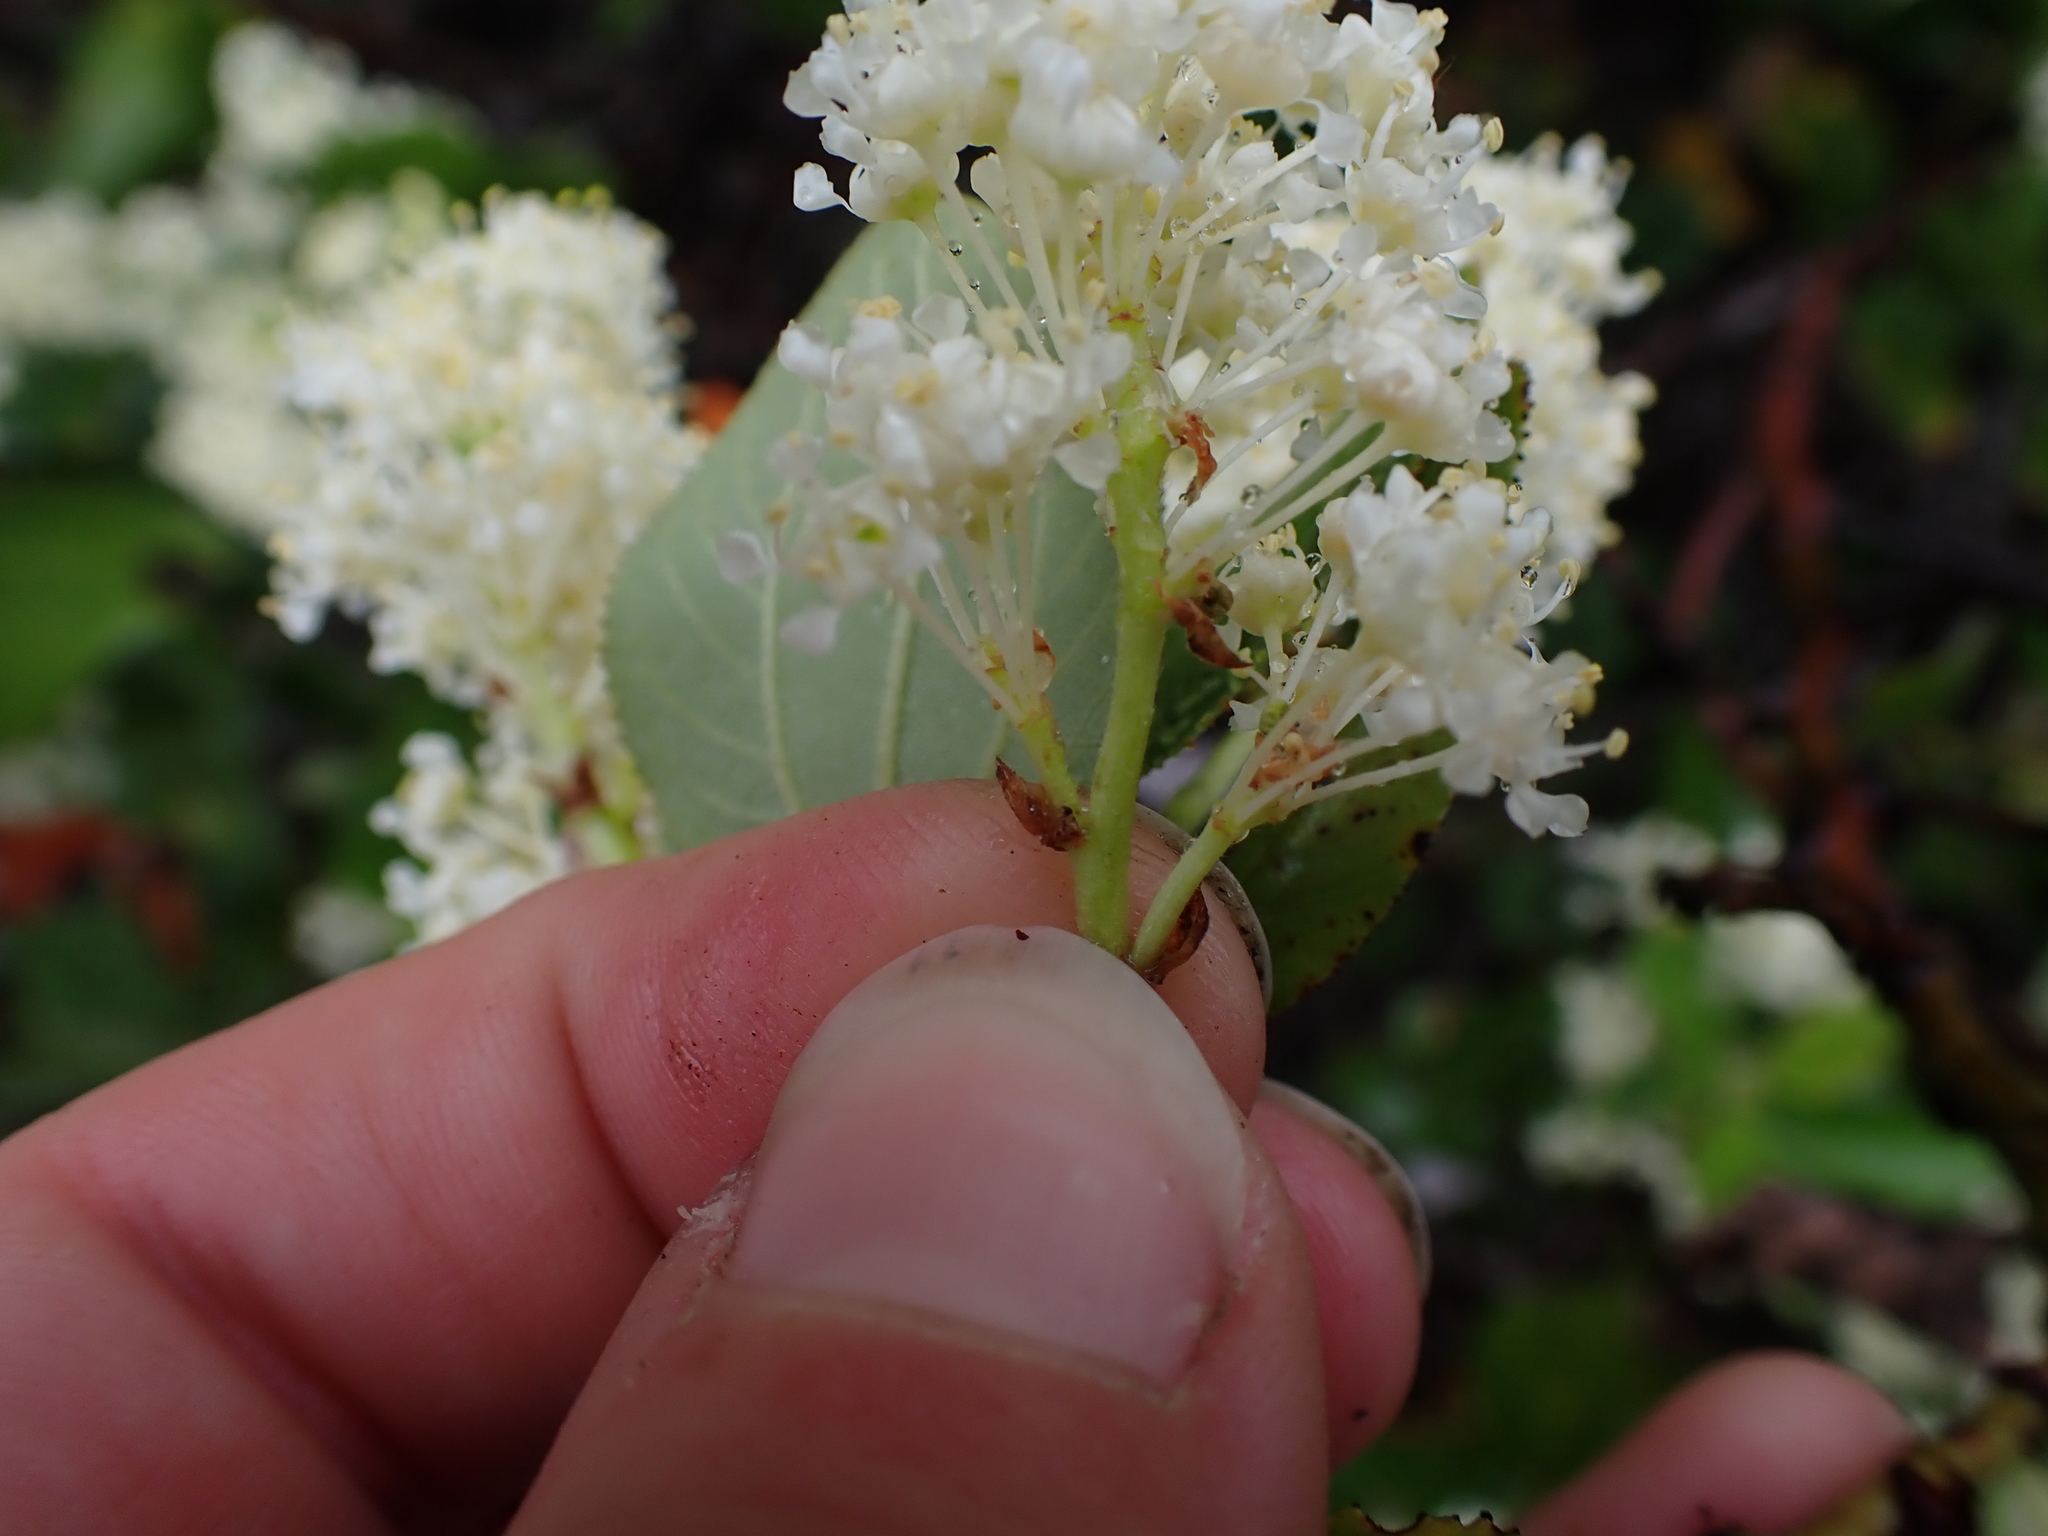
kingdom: Plantae
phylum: Tracheophyta
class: Magnoliopsida
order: Rosales
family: Rhamnaceae
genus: Ceanothus
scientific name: Ceanothus velutinus
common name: Snowbrush
